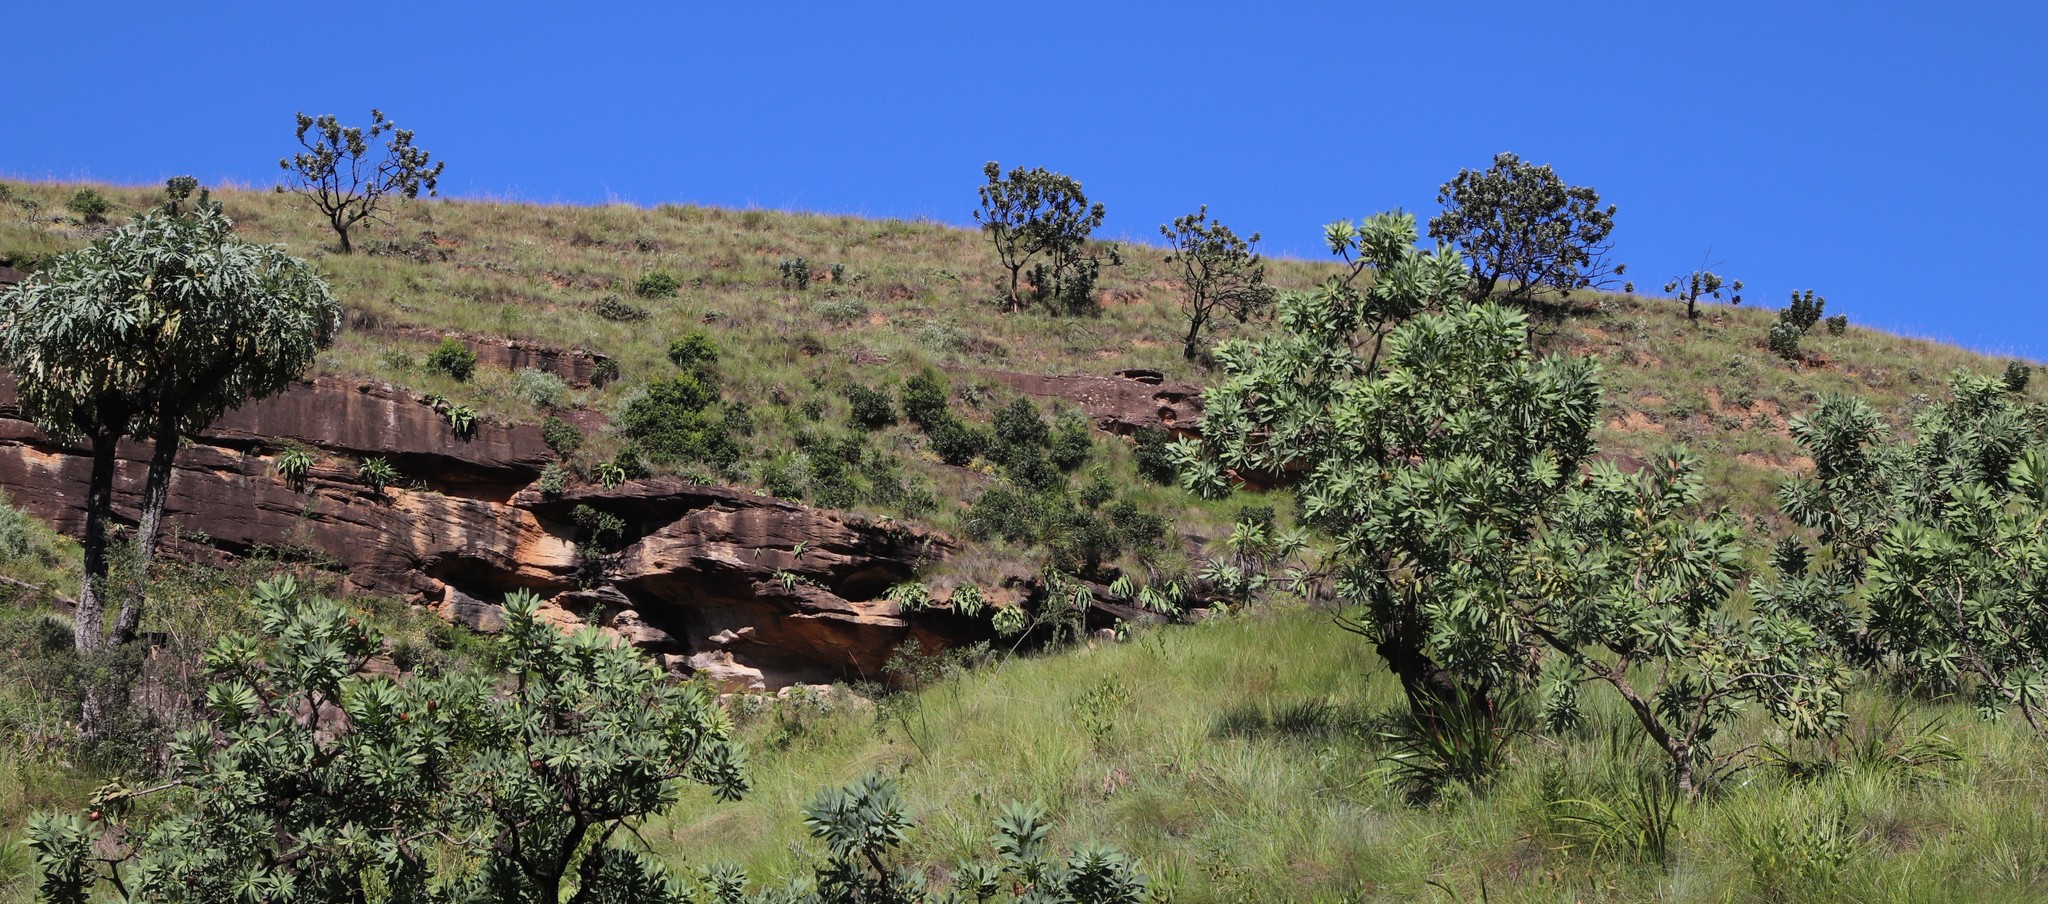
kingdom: Plantae
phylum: Tracheophyta
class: Magnoliopsida
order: Proteales
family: Proteaceae
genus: Protea
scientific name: Protea roupelliae
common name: Silver sugarbush
